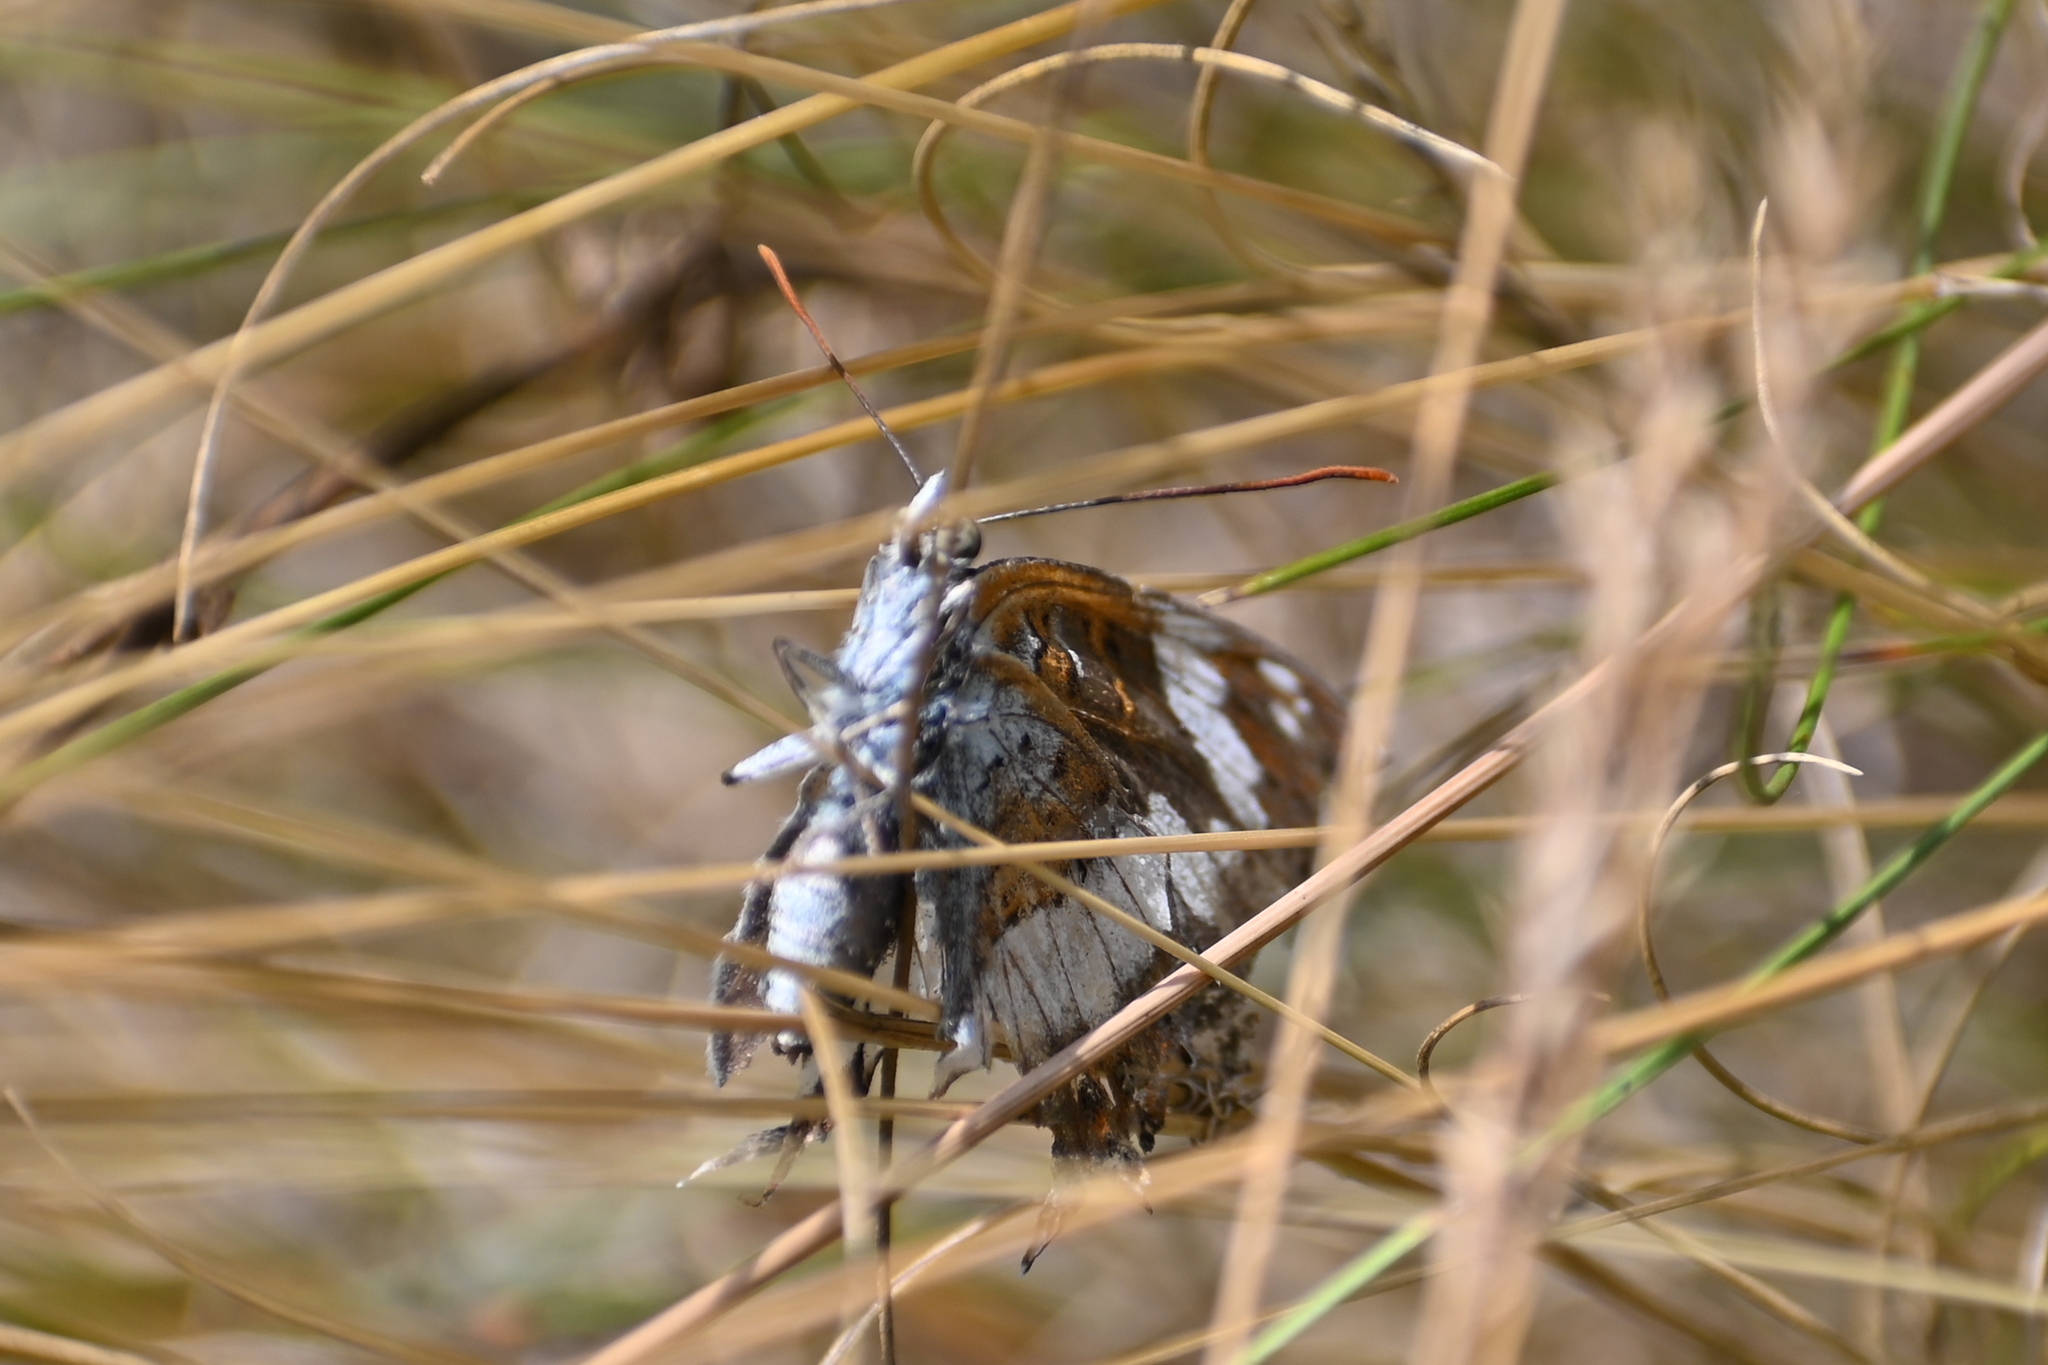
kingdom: Animalia
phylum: Arthropoda
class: Insecta
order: Lepidoptera
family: Nymphalidae
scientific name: Nymphalidae
